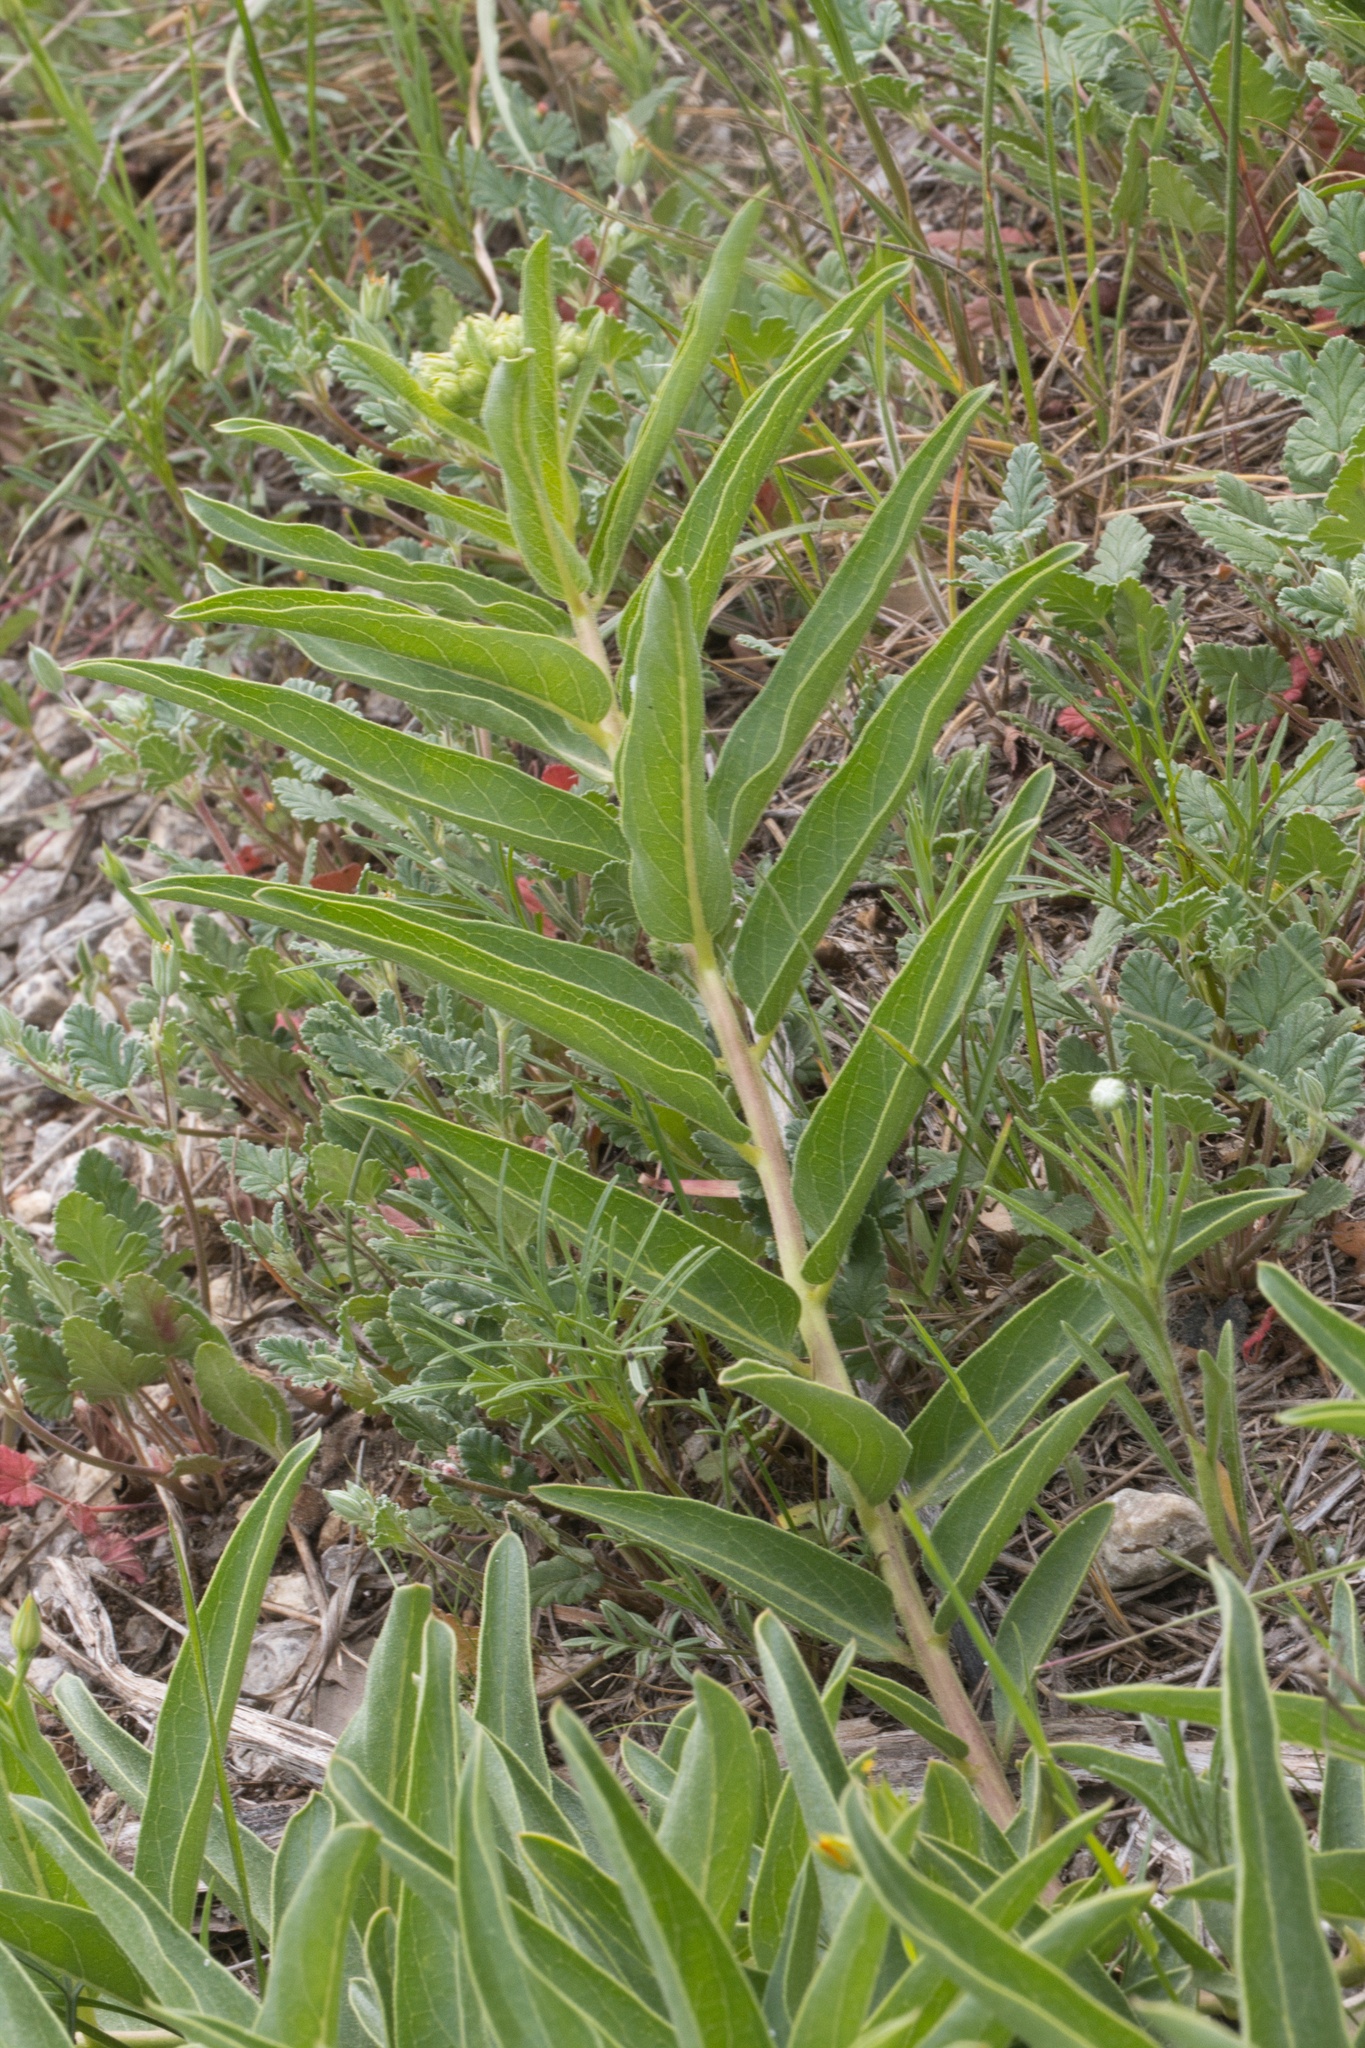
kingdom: Plantae
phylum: Tracheophyta
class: Magnoliopsida
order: Gentianales
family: Apocynaceae
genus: Asclepias
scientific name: Asclepias asperula
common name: Antelope horns
